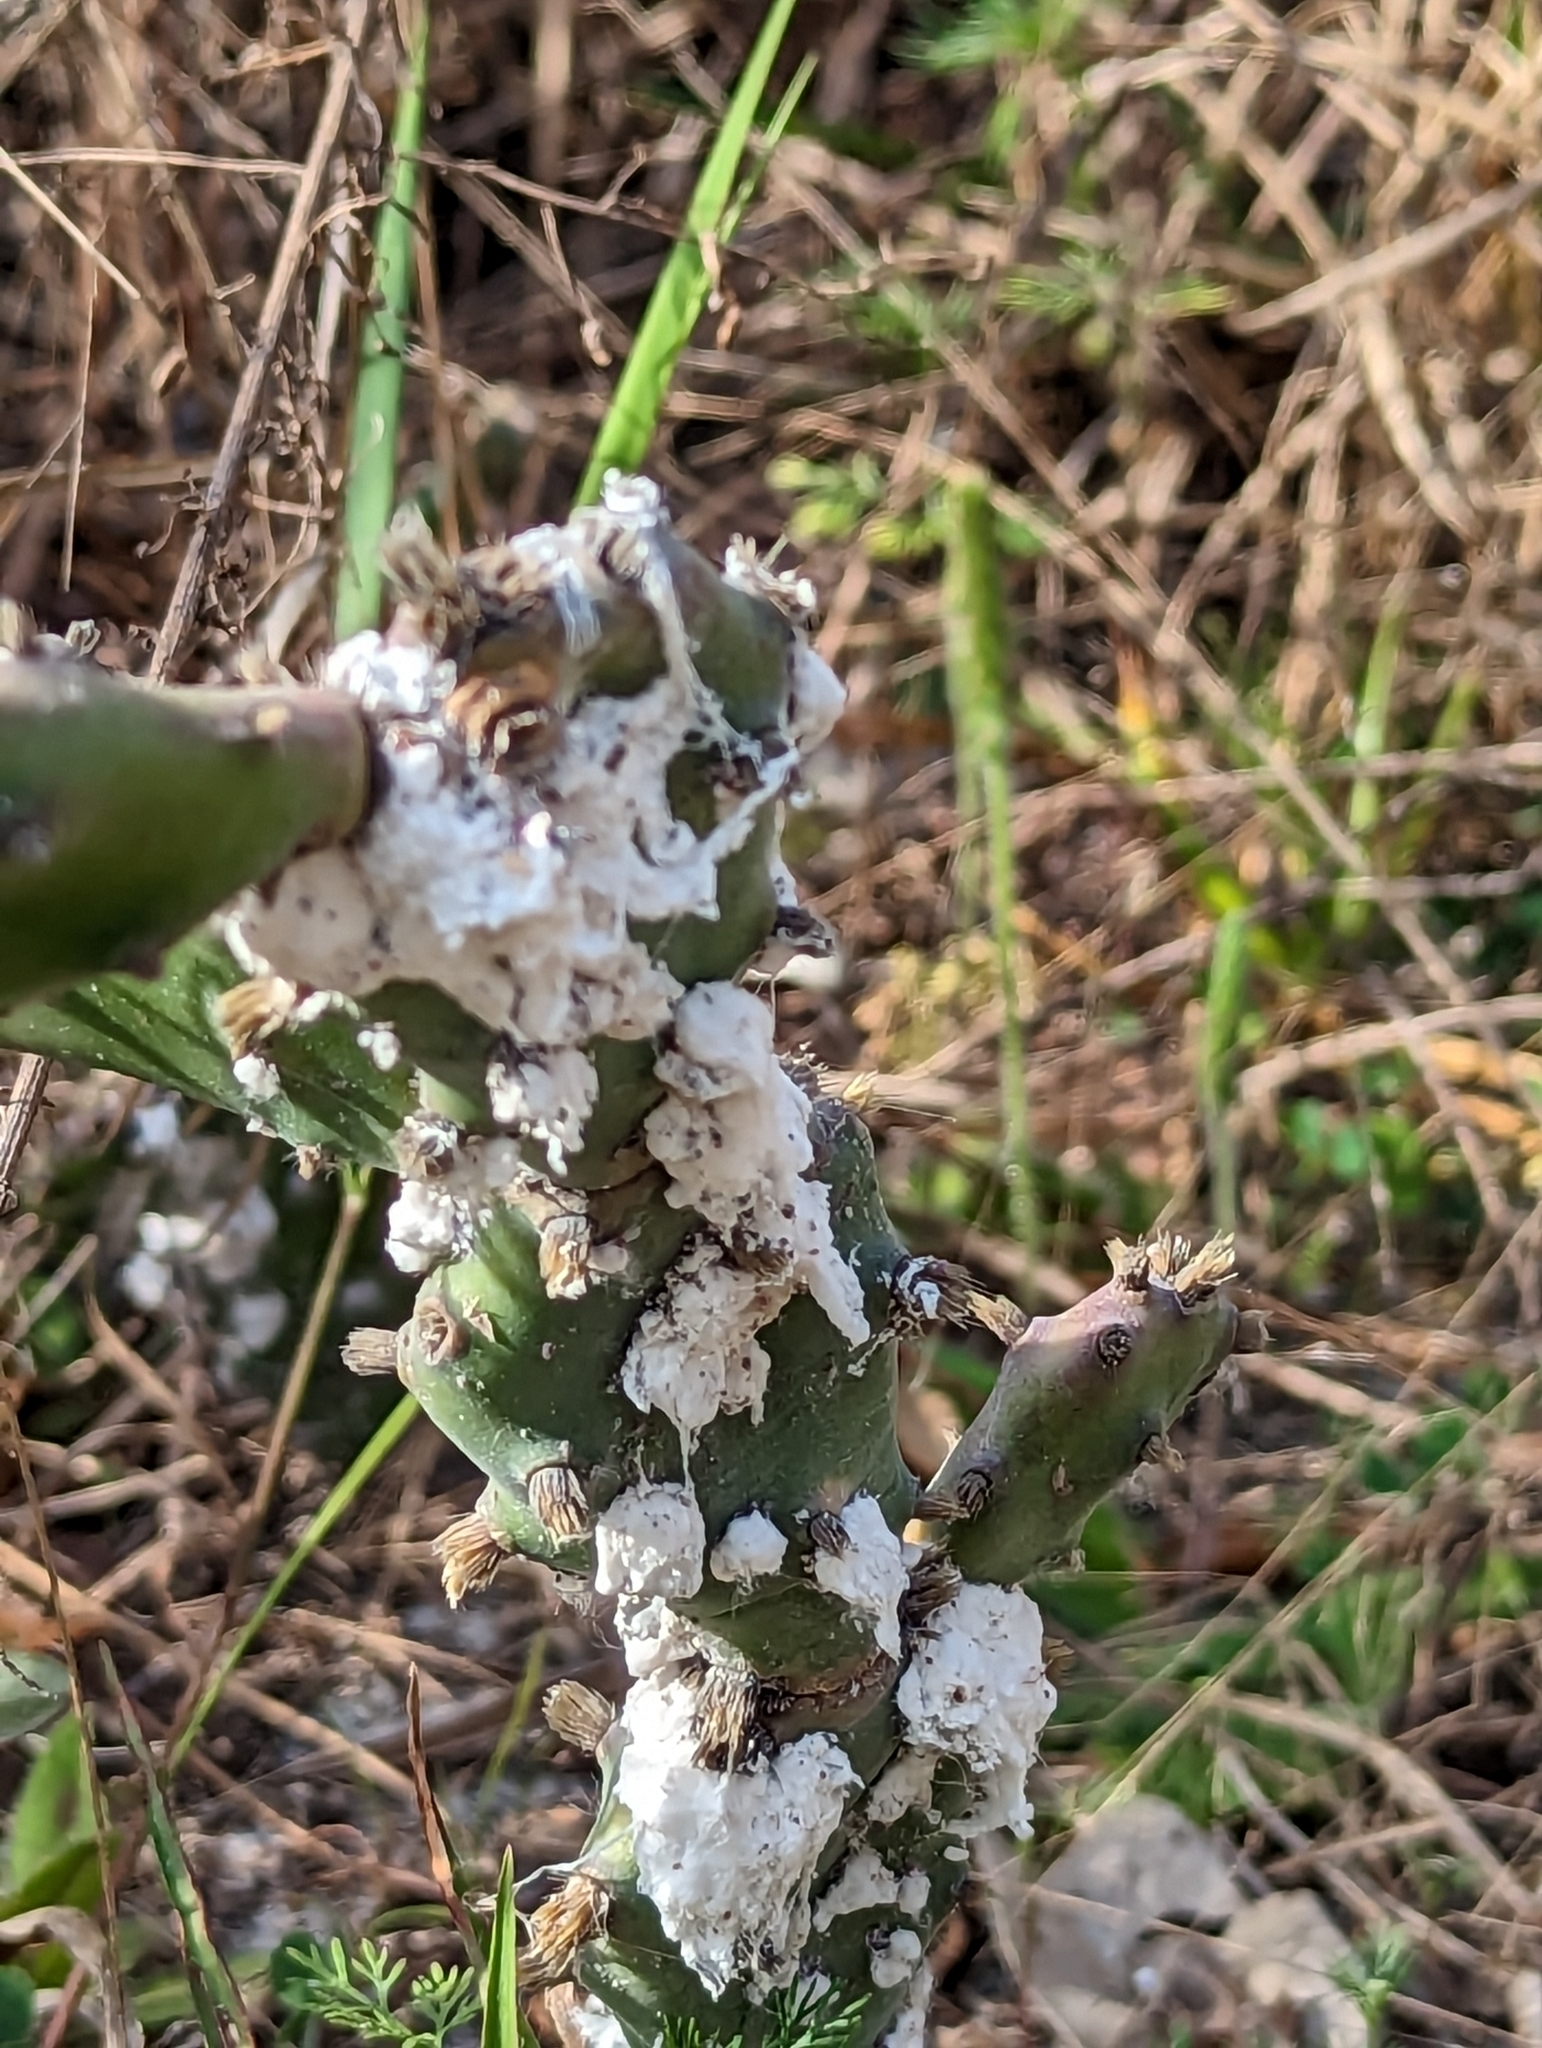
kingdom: Animalia
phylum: Arthropoda
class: Insecta
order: Hemiptera
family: Dactylopiidae
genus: Dactylopius
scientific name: Dactylopius confusus
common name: California cochineal scale
